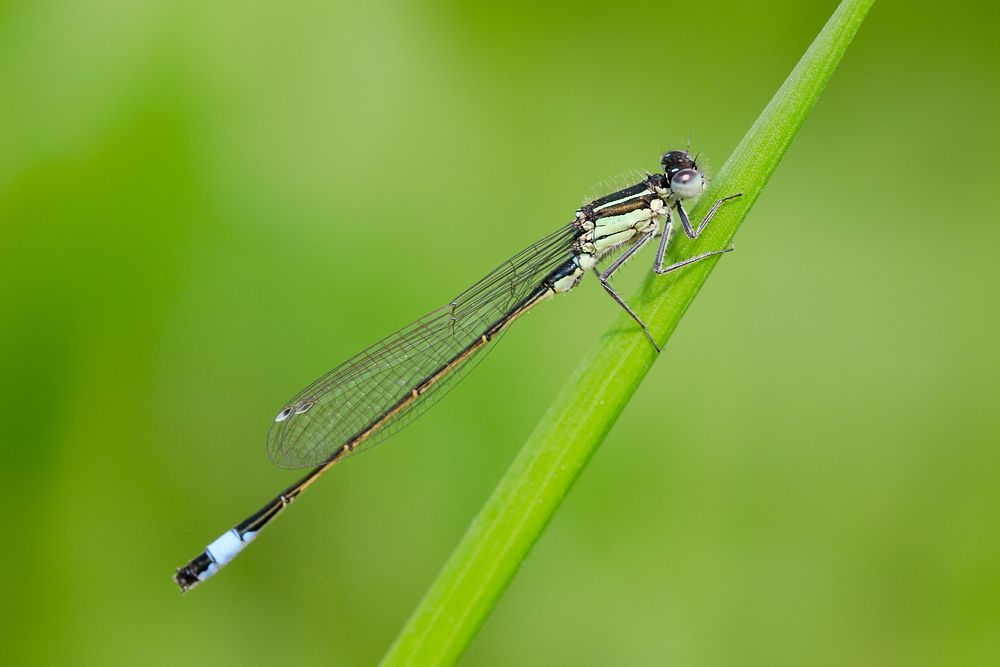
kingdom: Animalia
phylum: Arthropoda
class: Insecta
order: Odonata
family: Coenagrionidae
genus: Ischnura
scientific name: Ischnura elegans
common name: Blue-tailed damselfly
